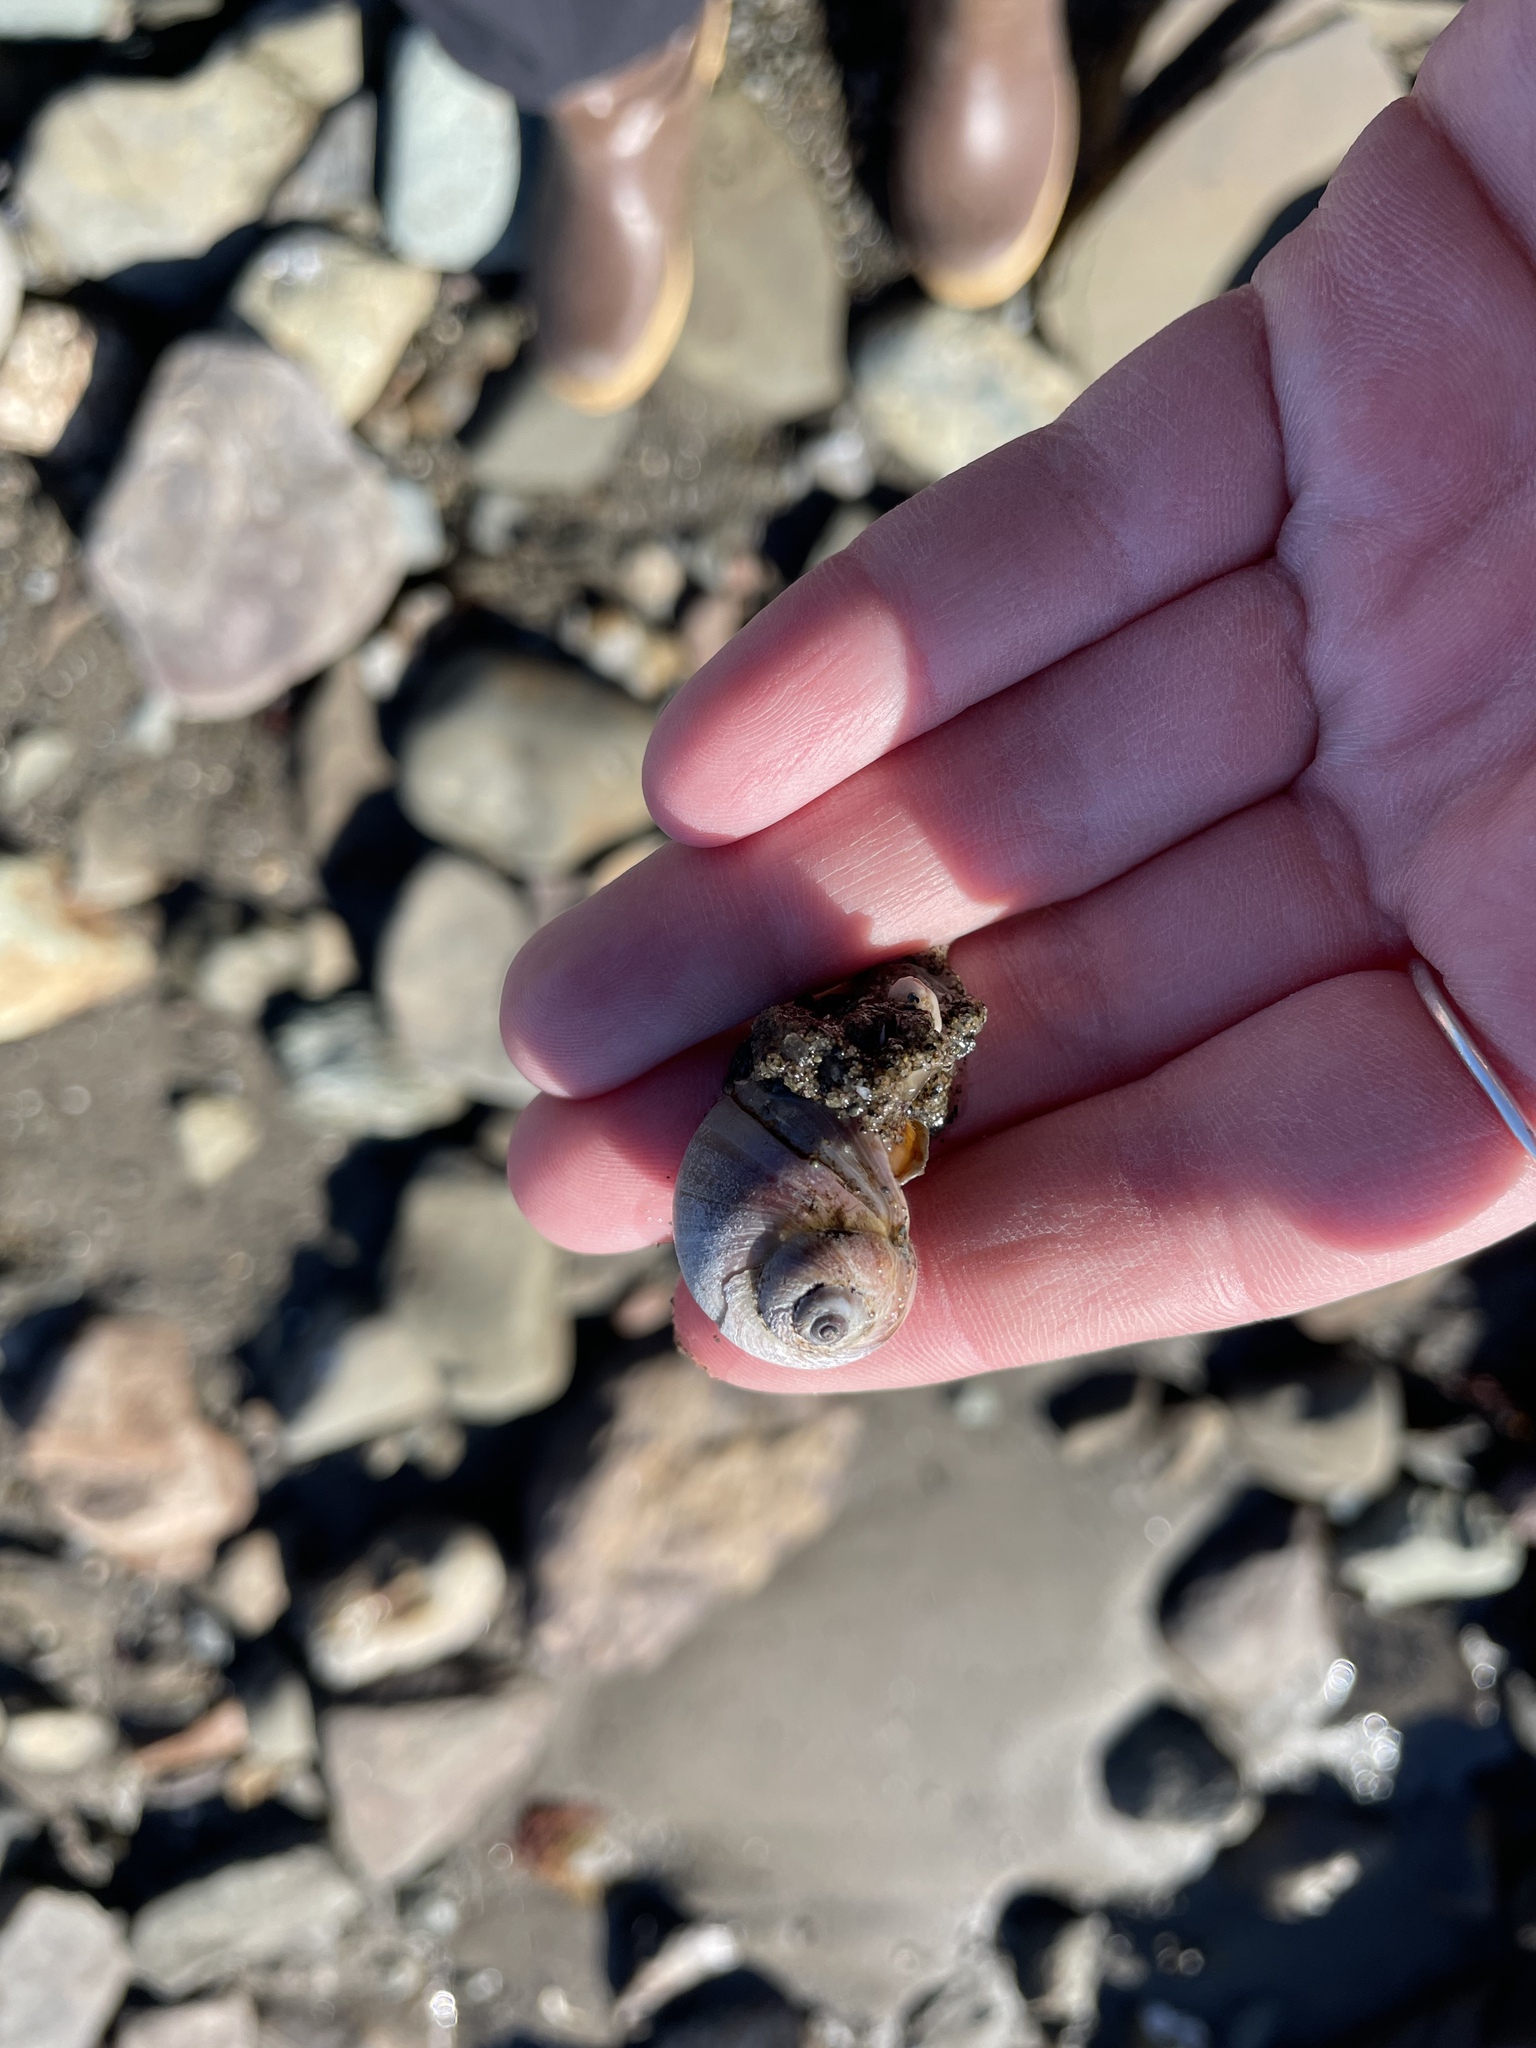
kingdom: Animalia
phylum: Mollusca
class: Gastropoda
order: Littorinimorpha
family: Naticidae
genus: Euspira
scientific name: Euspira heros
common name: Common northern moonsnail
